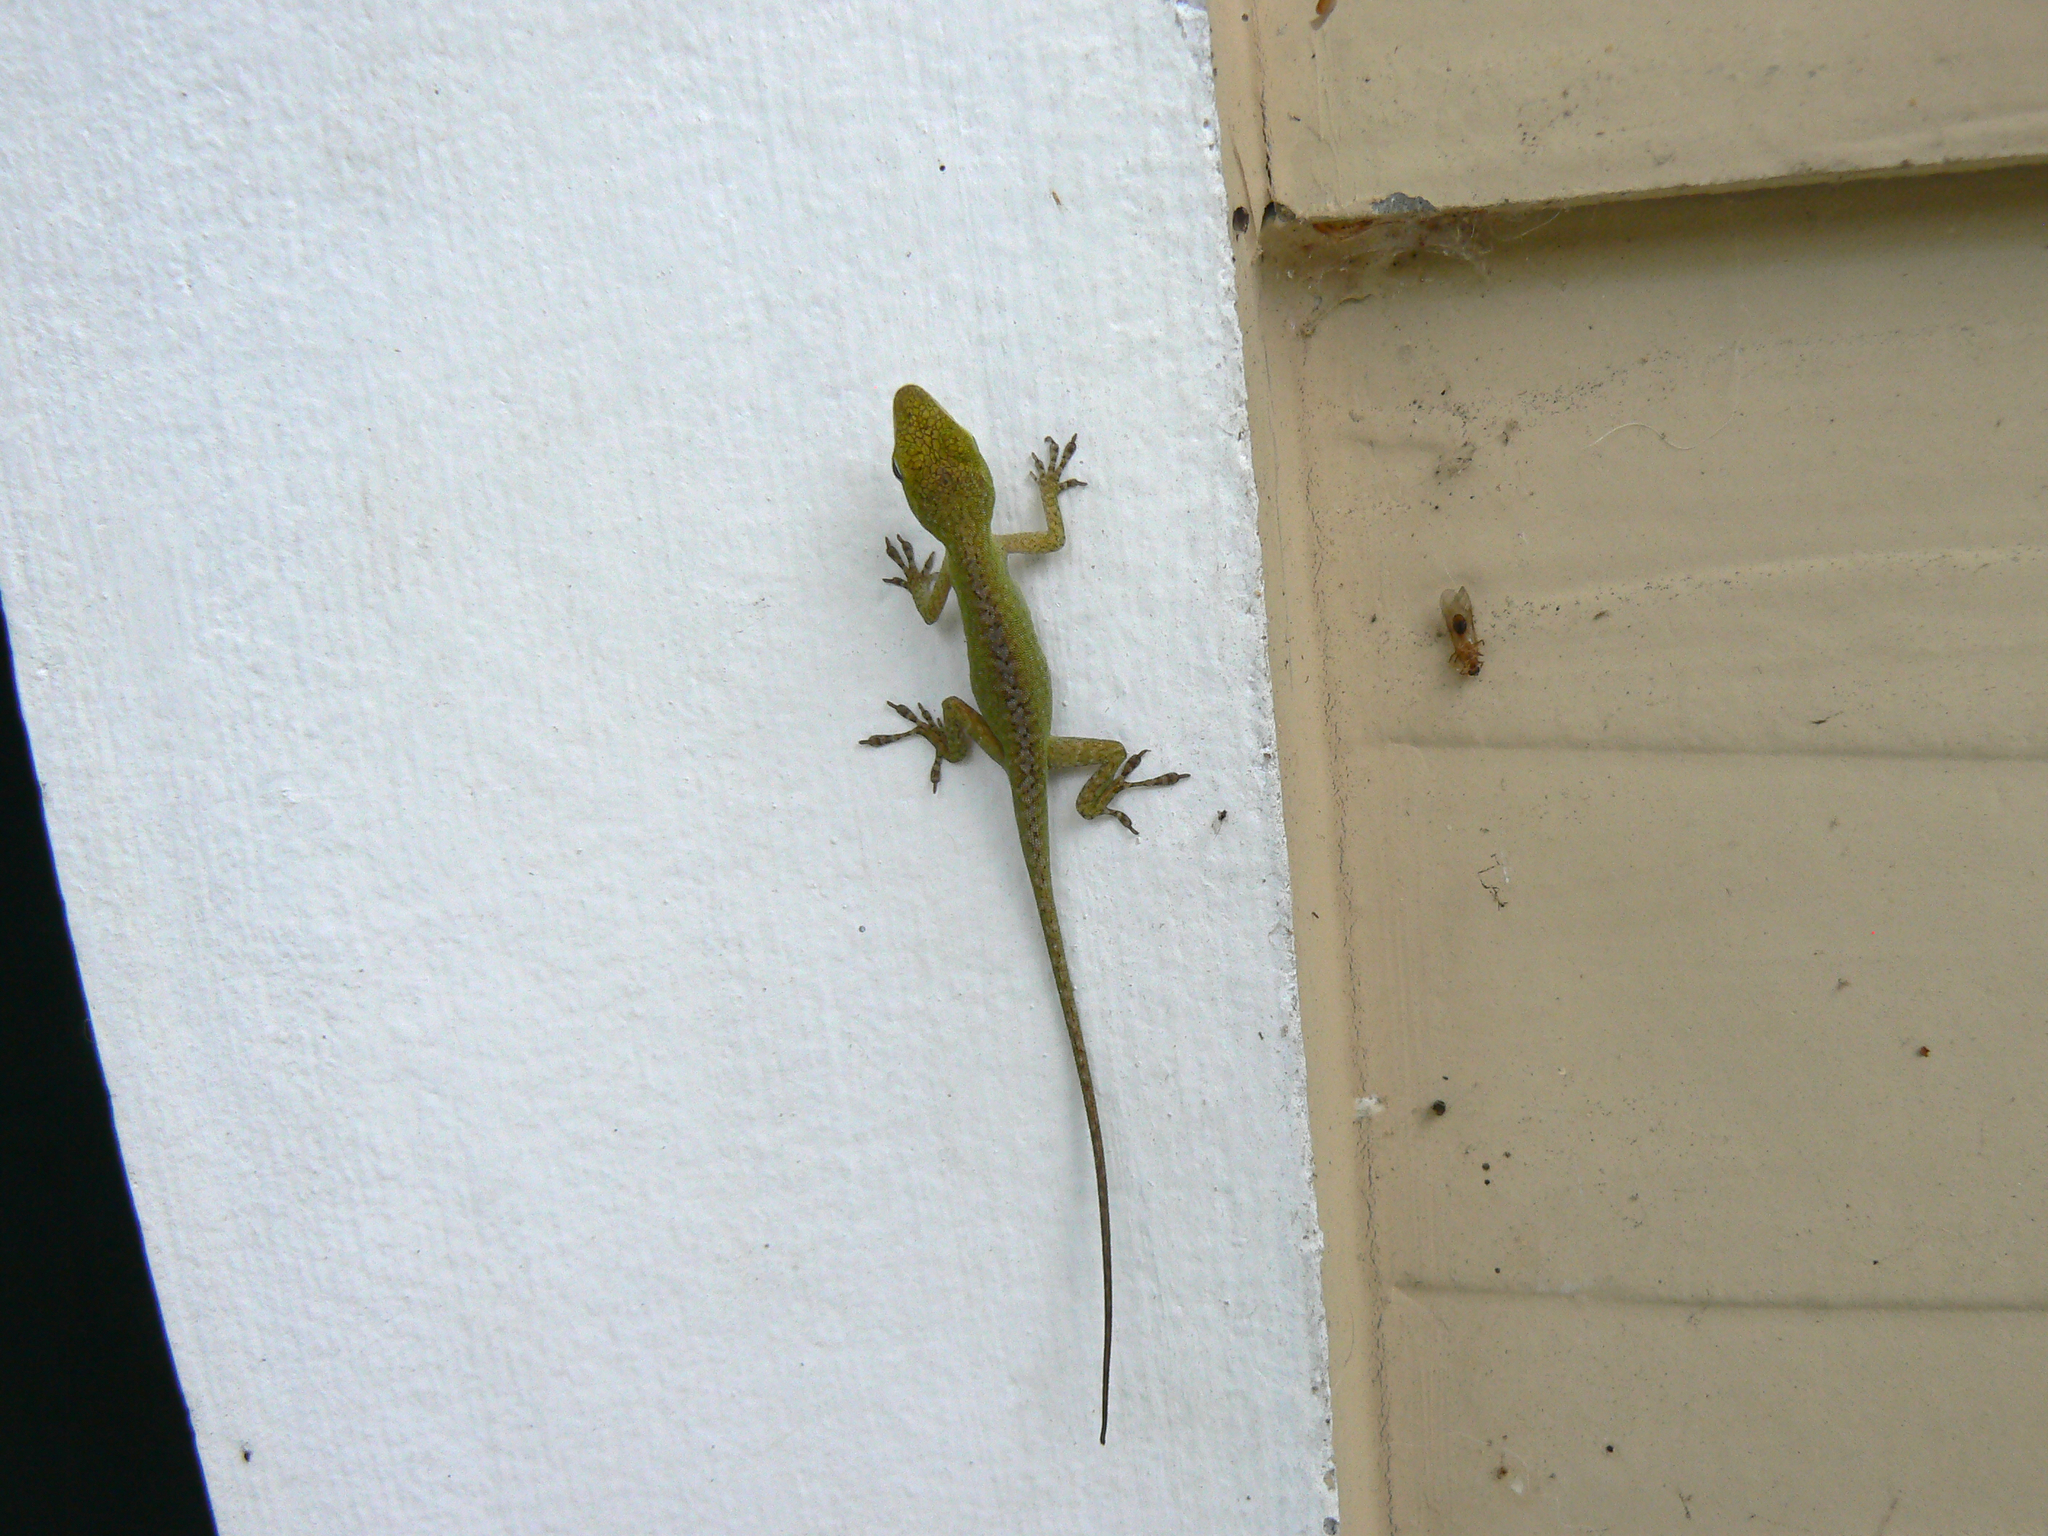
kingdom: Animalia
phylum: Chordata
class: Squamata
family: Dactyloidae
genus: Anolis
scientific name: Anolis carolinensis
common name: Green anole
